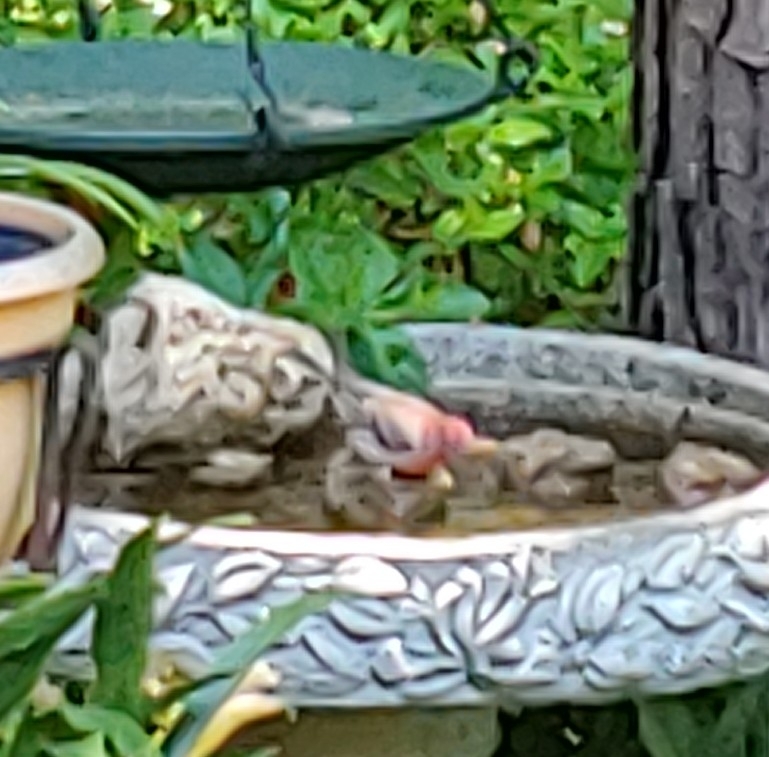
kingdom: Animalia
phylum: Chordata
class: Aves
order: Passeriformes
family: Fringillidae
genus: Haemorhous
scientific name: Haemorhous mexicanus
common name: House finch
